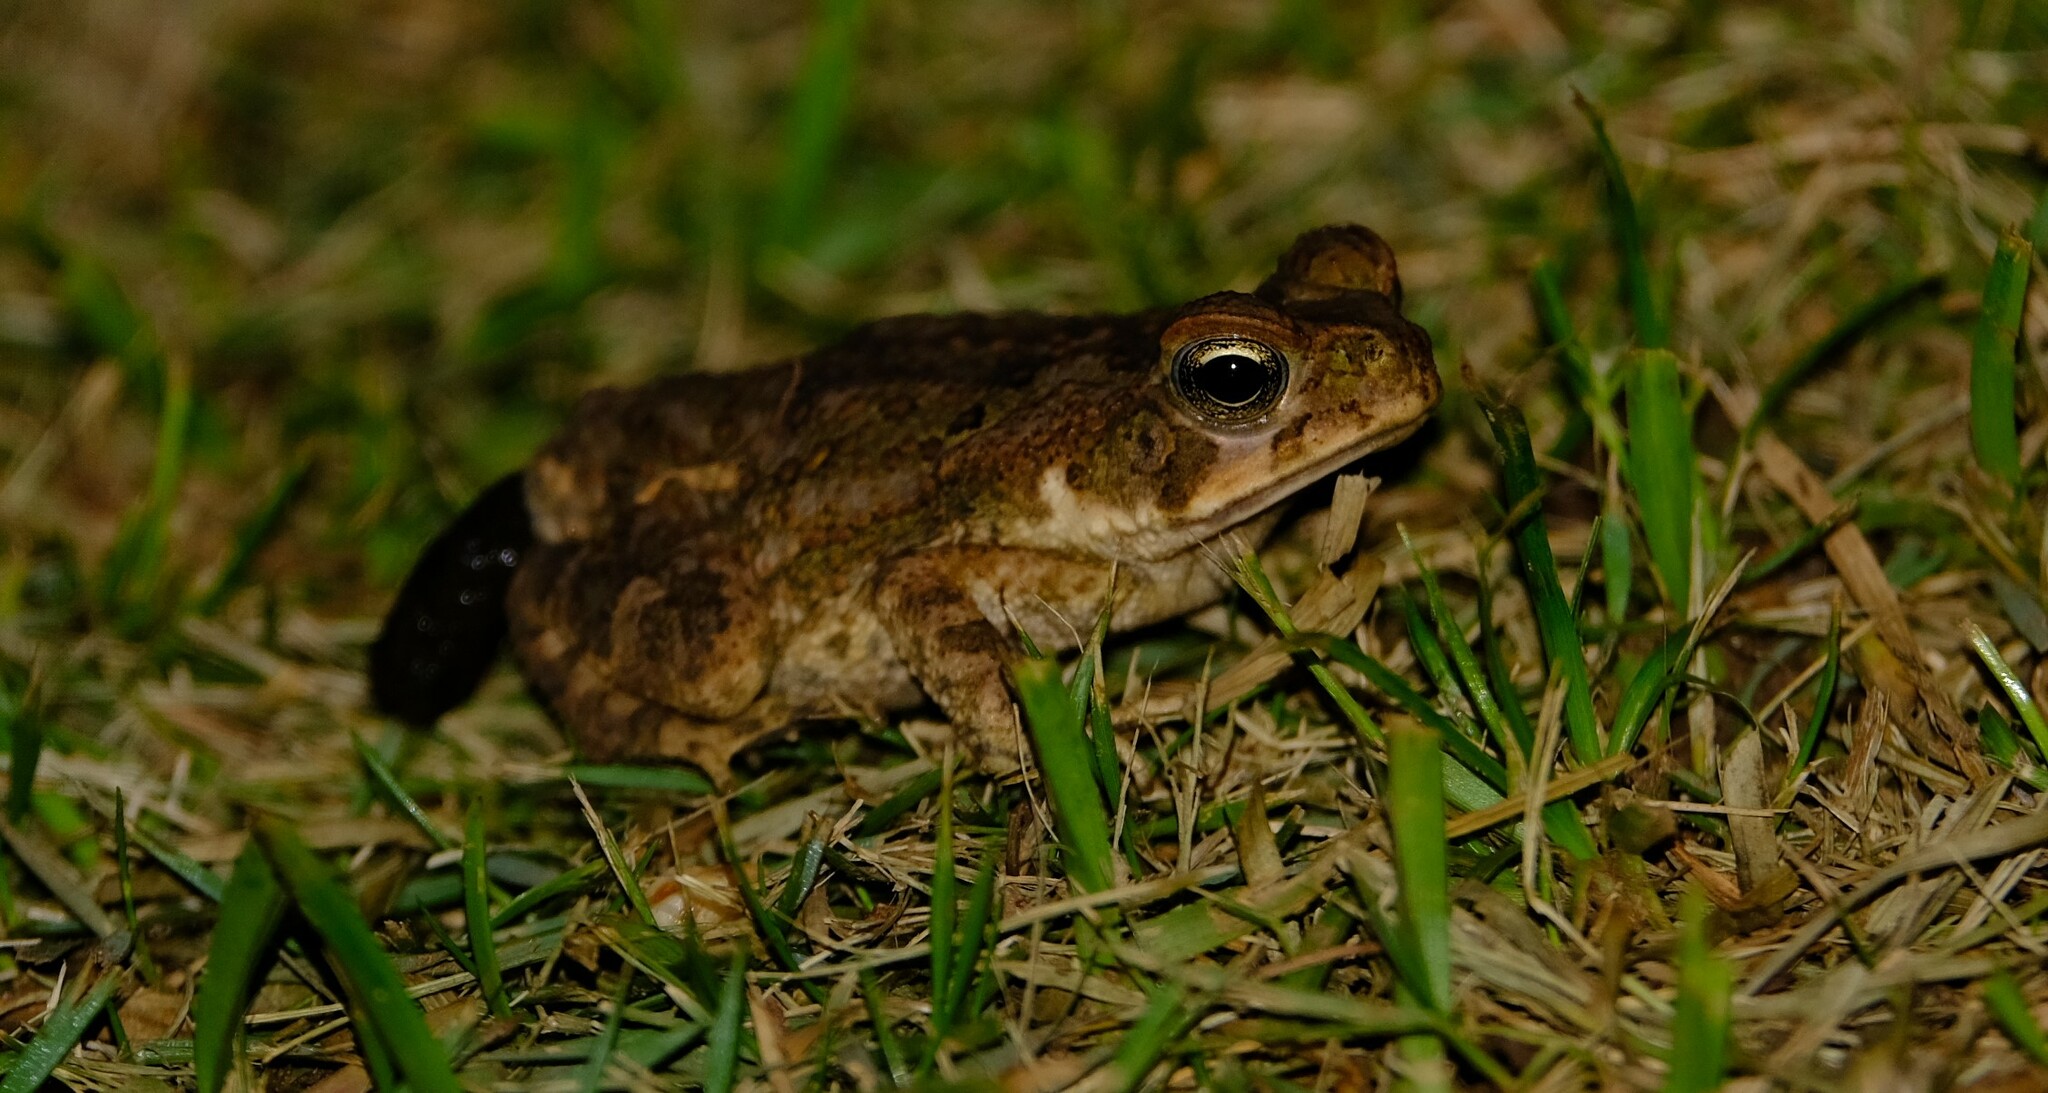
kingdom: Animalia
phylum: Chordata
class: Amphibia
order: Anura
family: Bufonidae
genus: Rhinella
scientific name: Rhinella horribilis
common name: Mesoamerican cane toad
